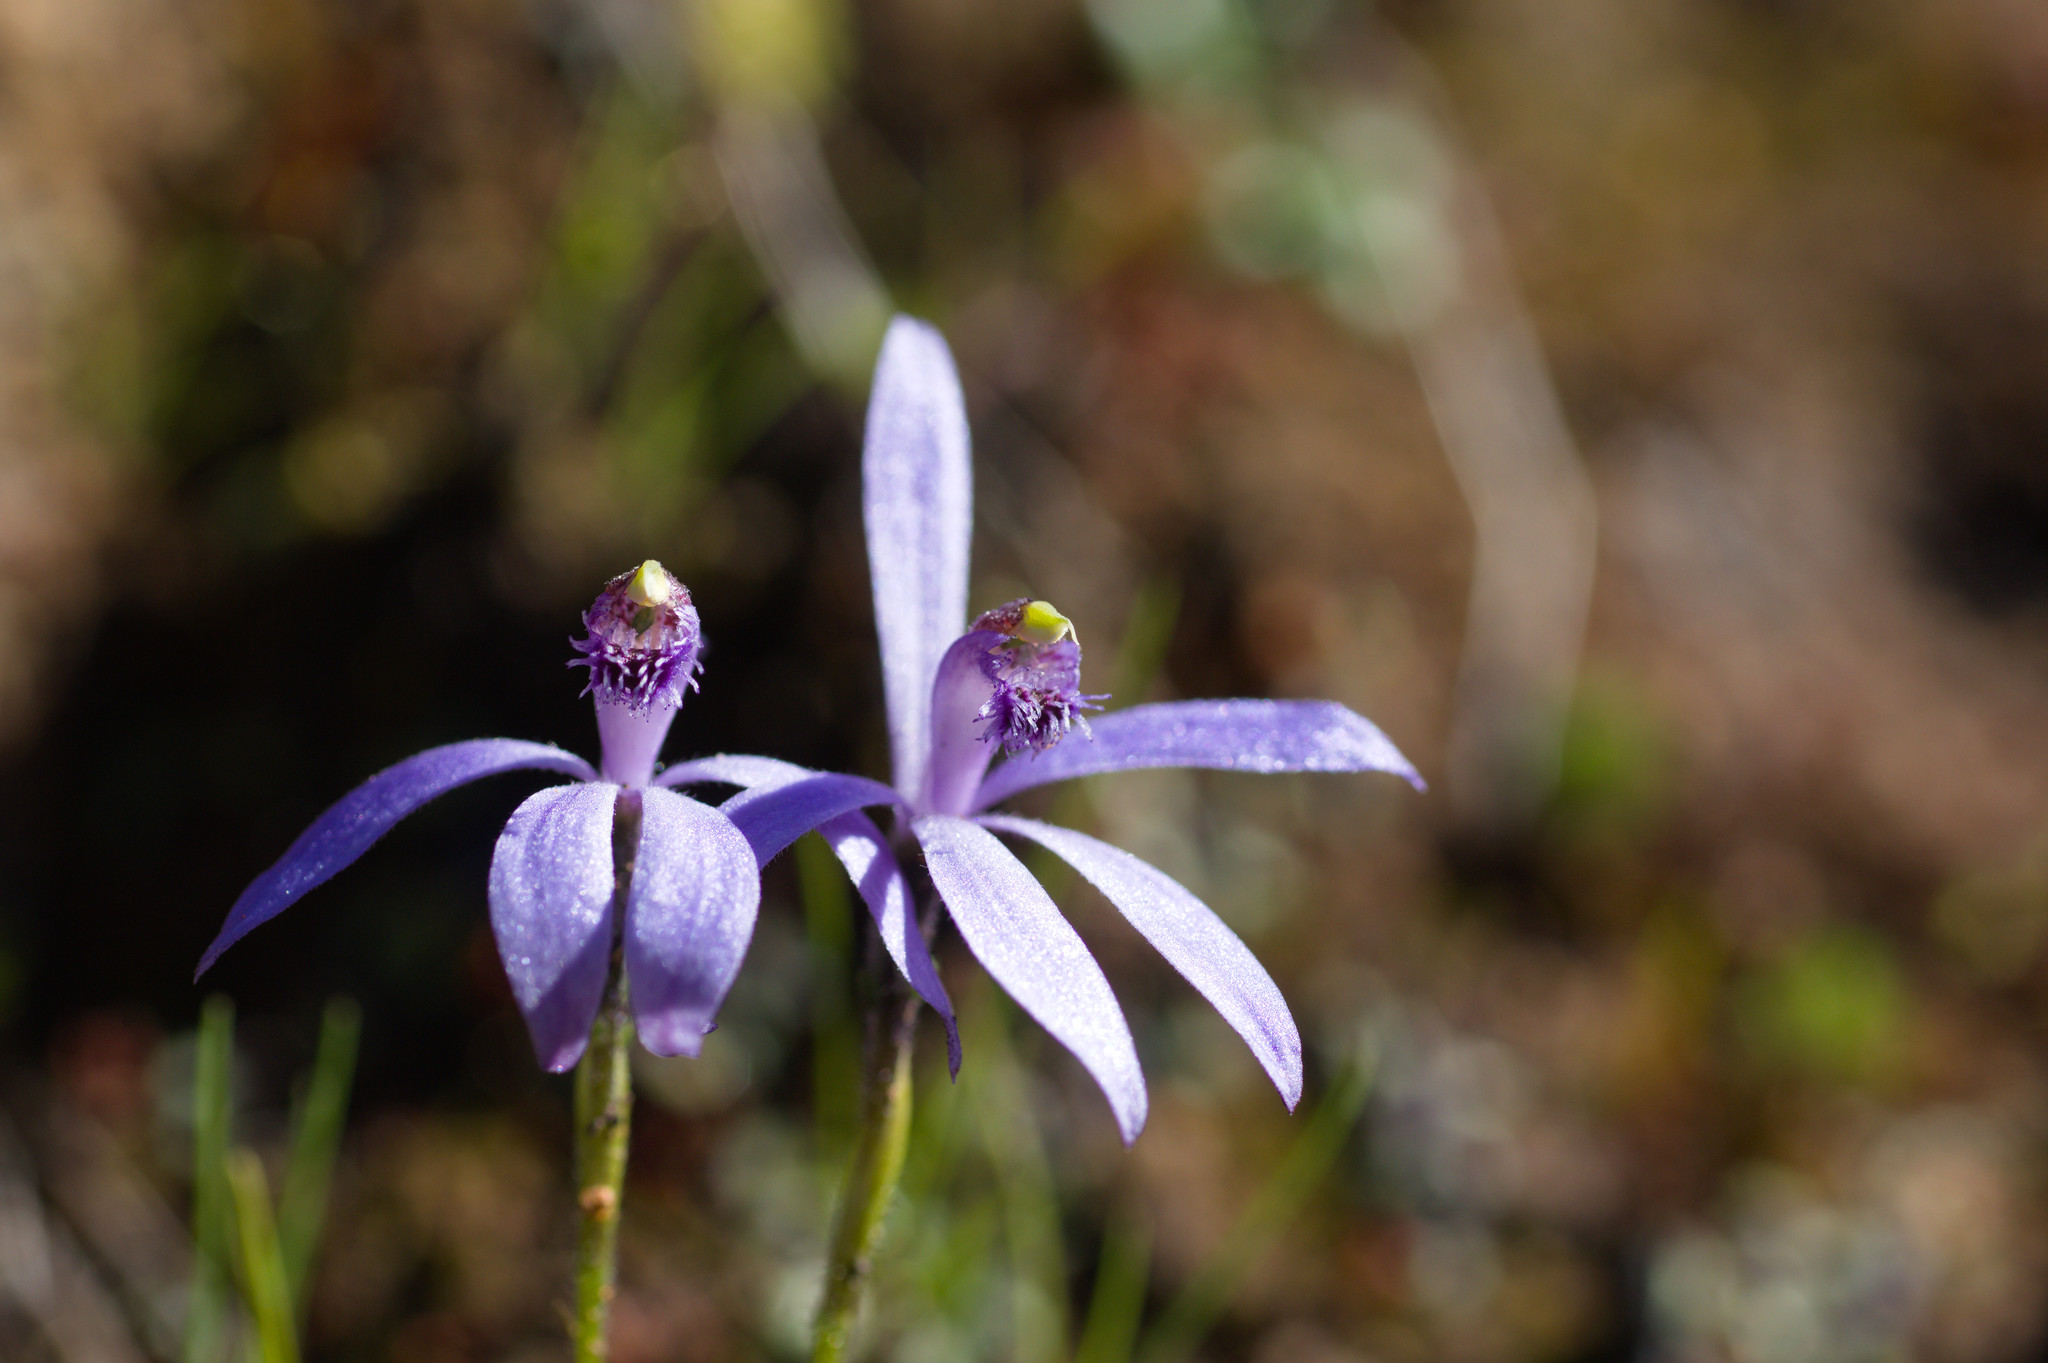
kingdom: Plantae
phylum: Tracheophyta
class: Liliopsida
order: Asparagales
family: Orchidaceae
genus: Pheladenia
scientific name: Pheladenia deformis
